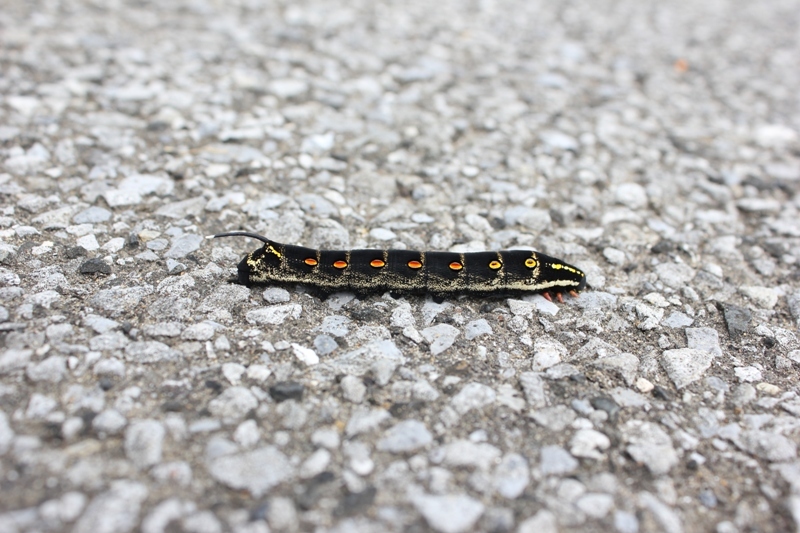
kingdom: Animalia
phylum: Arthropoda
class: Insecta
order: Lepidoptera
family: Sphingidae
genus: Theretra
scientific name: Theretra oldenlandiae
